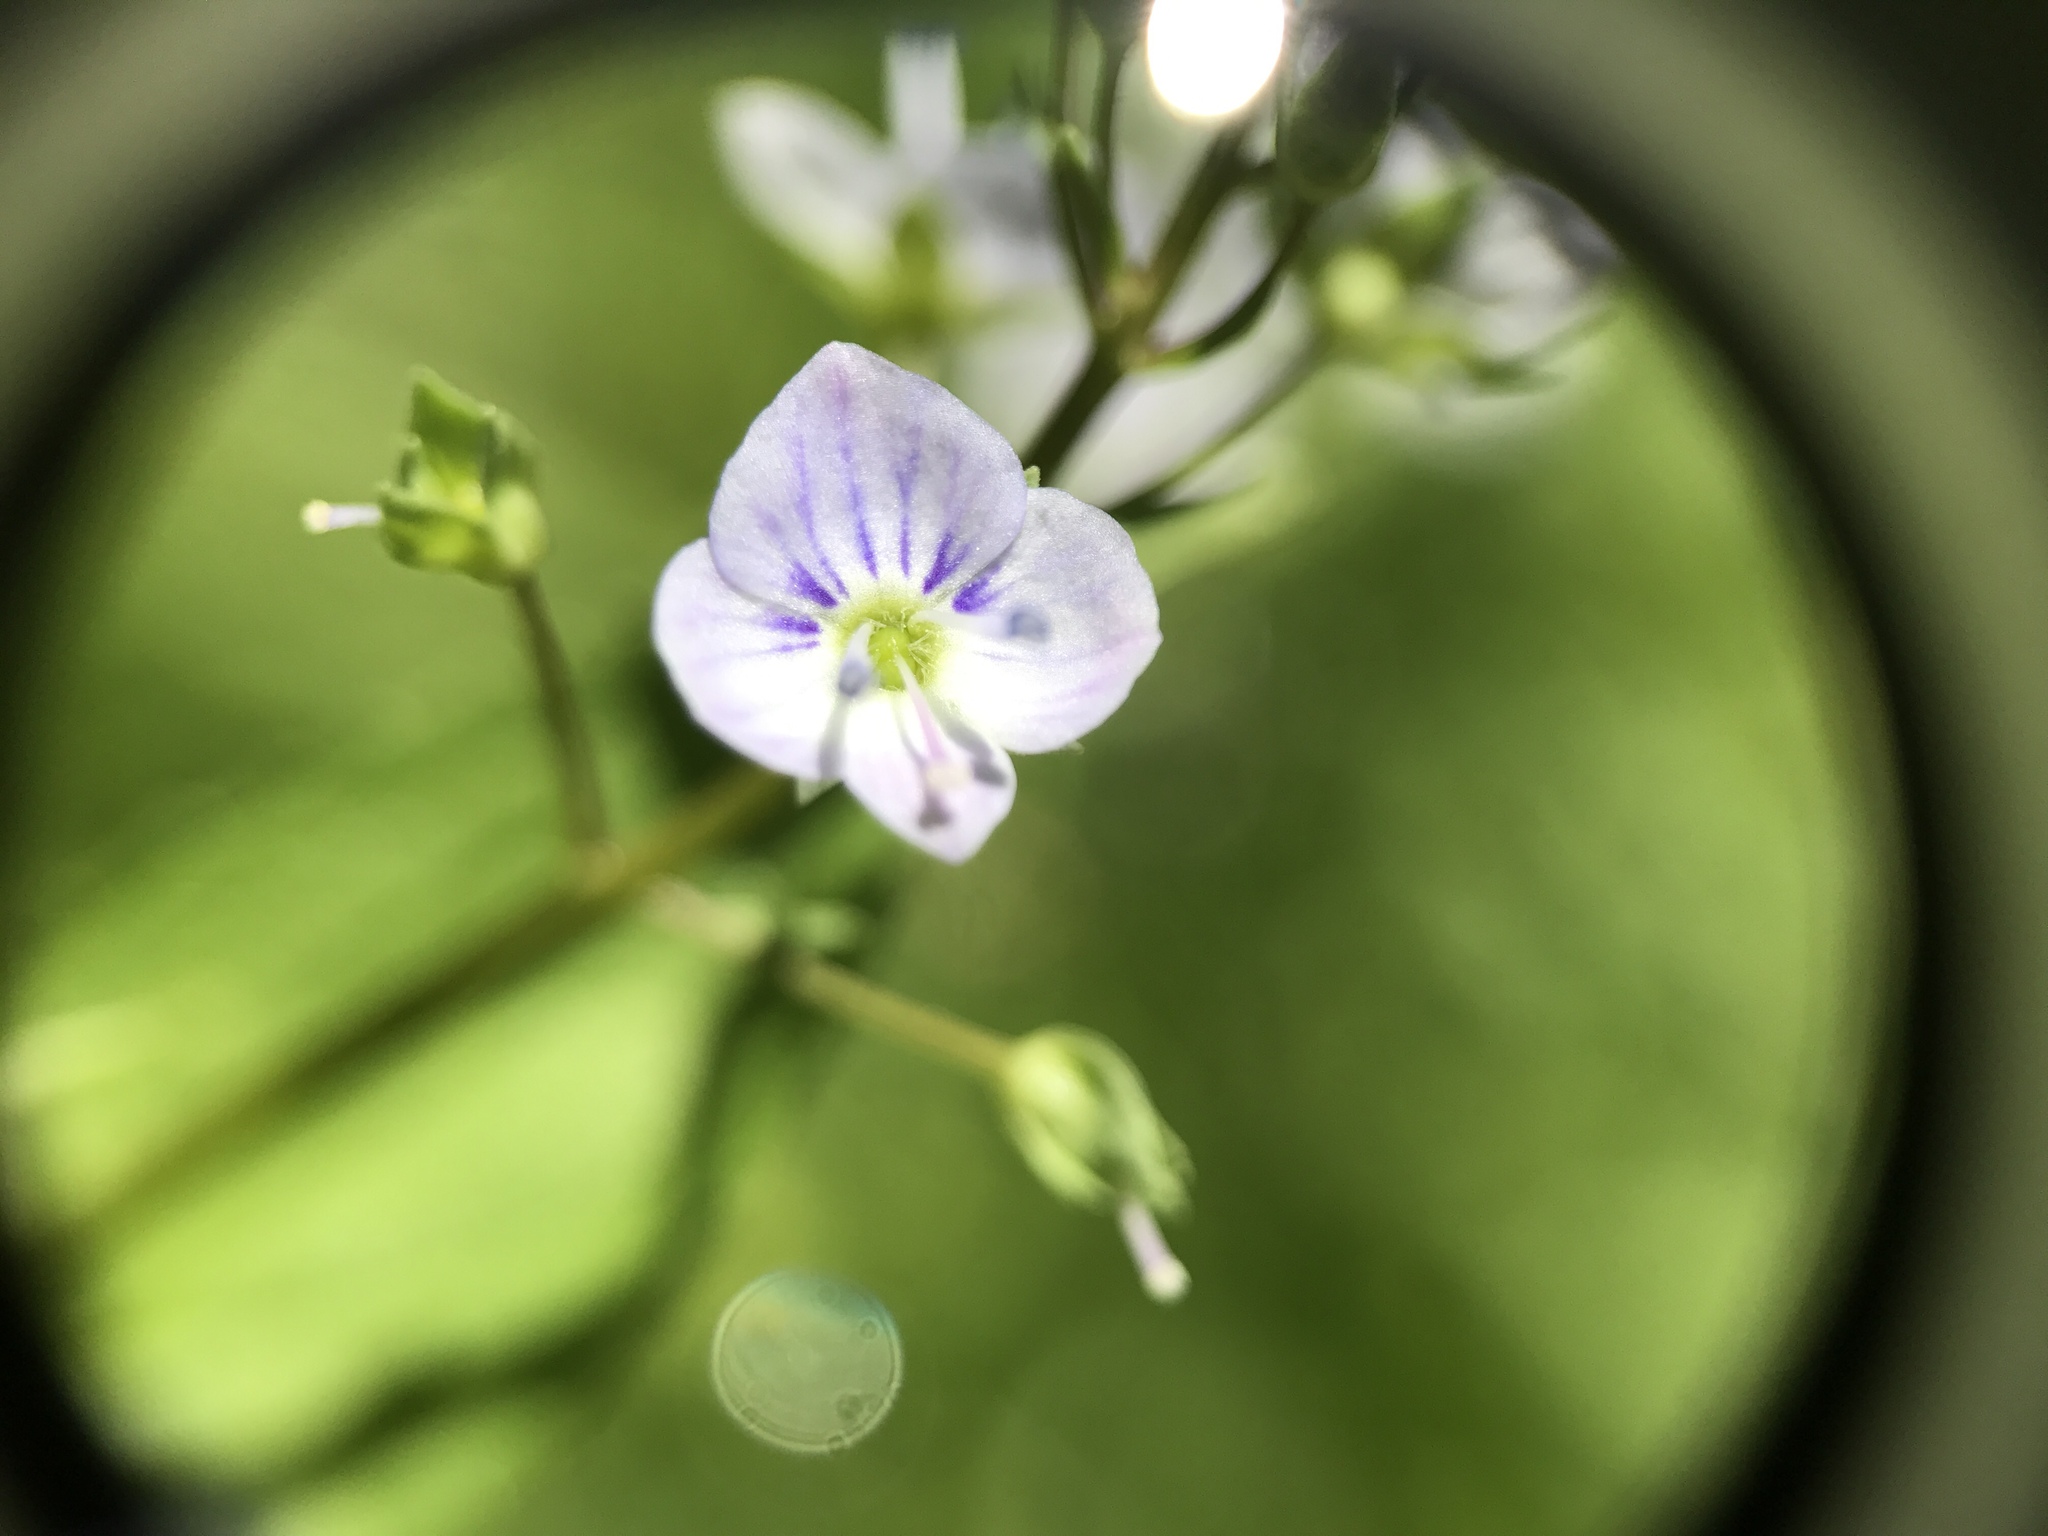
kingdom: Plantae
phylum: Tracheophyta
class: Magnoliopsida
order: Lamiales
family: Plantaginaceae
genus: Veronica
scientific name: Veronica anagallis-aquatica
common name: Water speedwell
